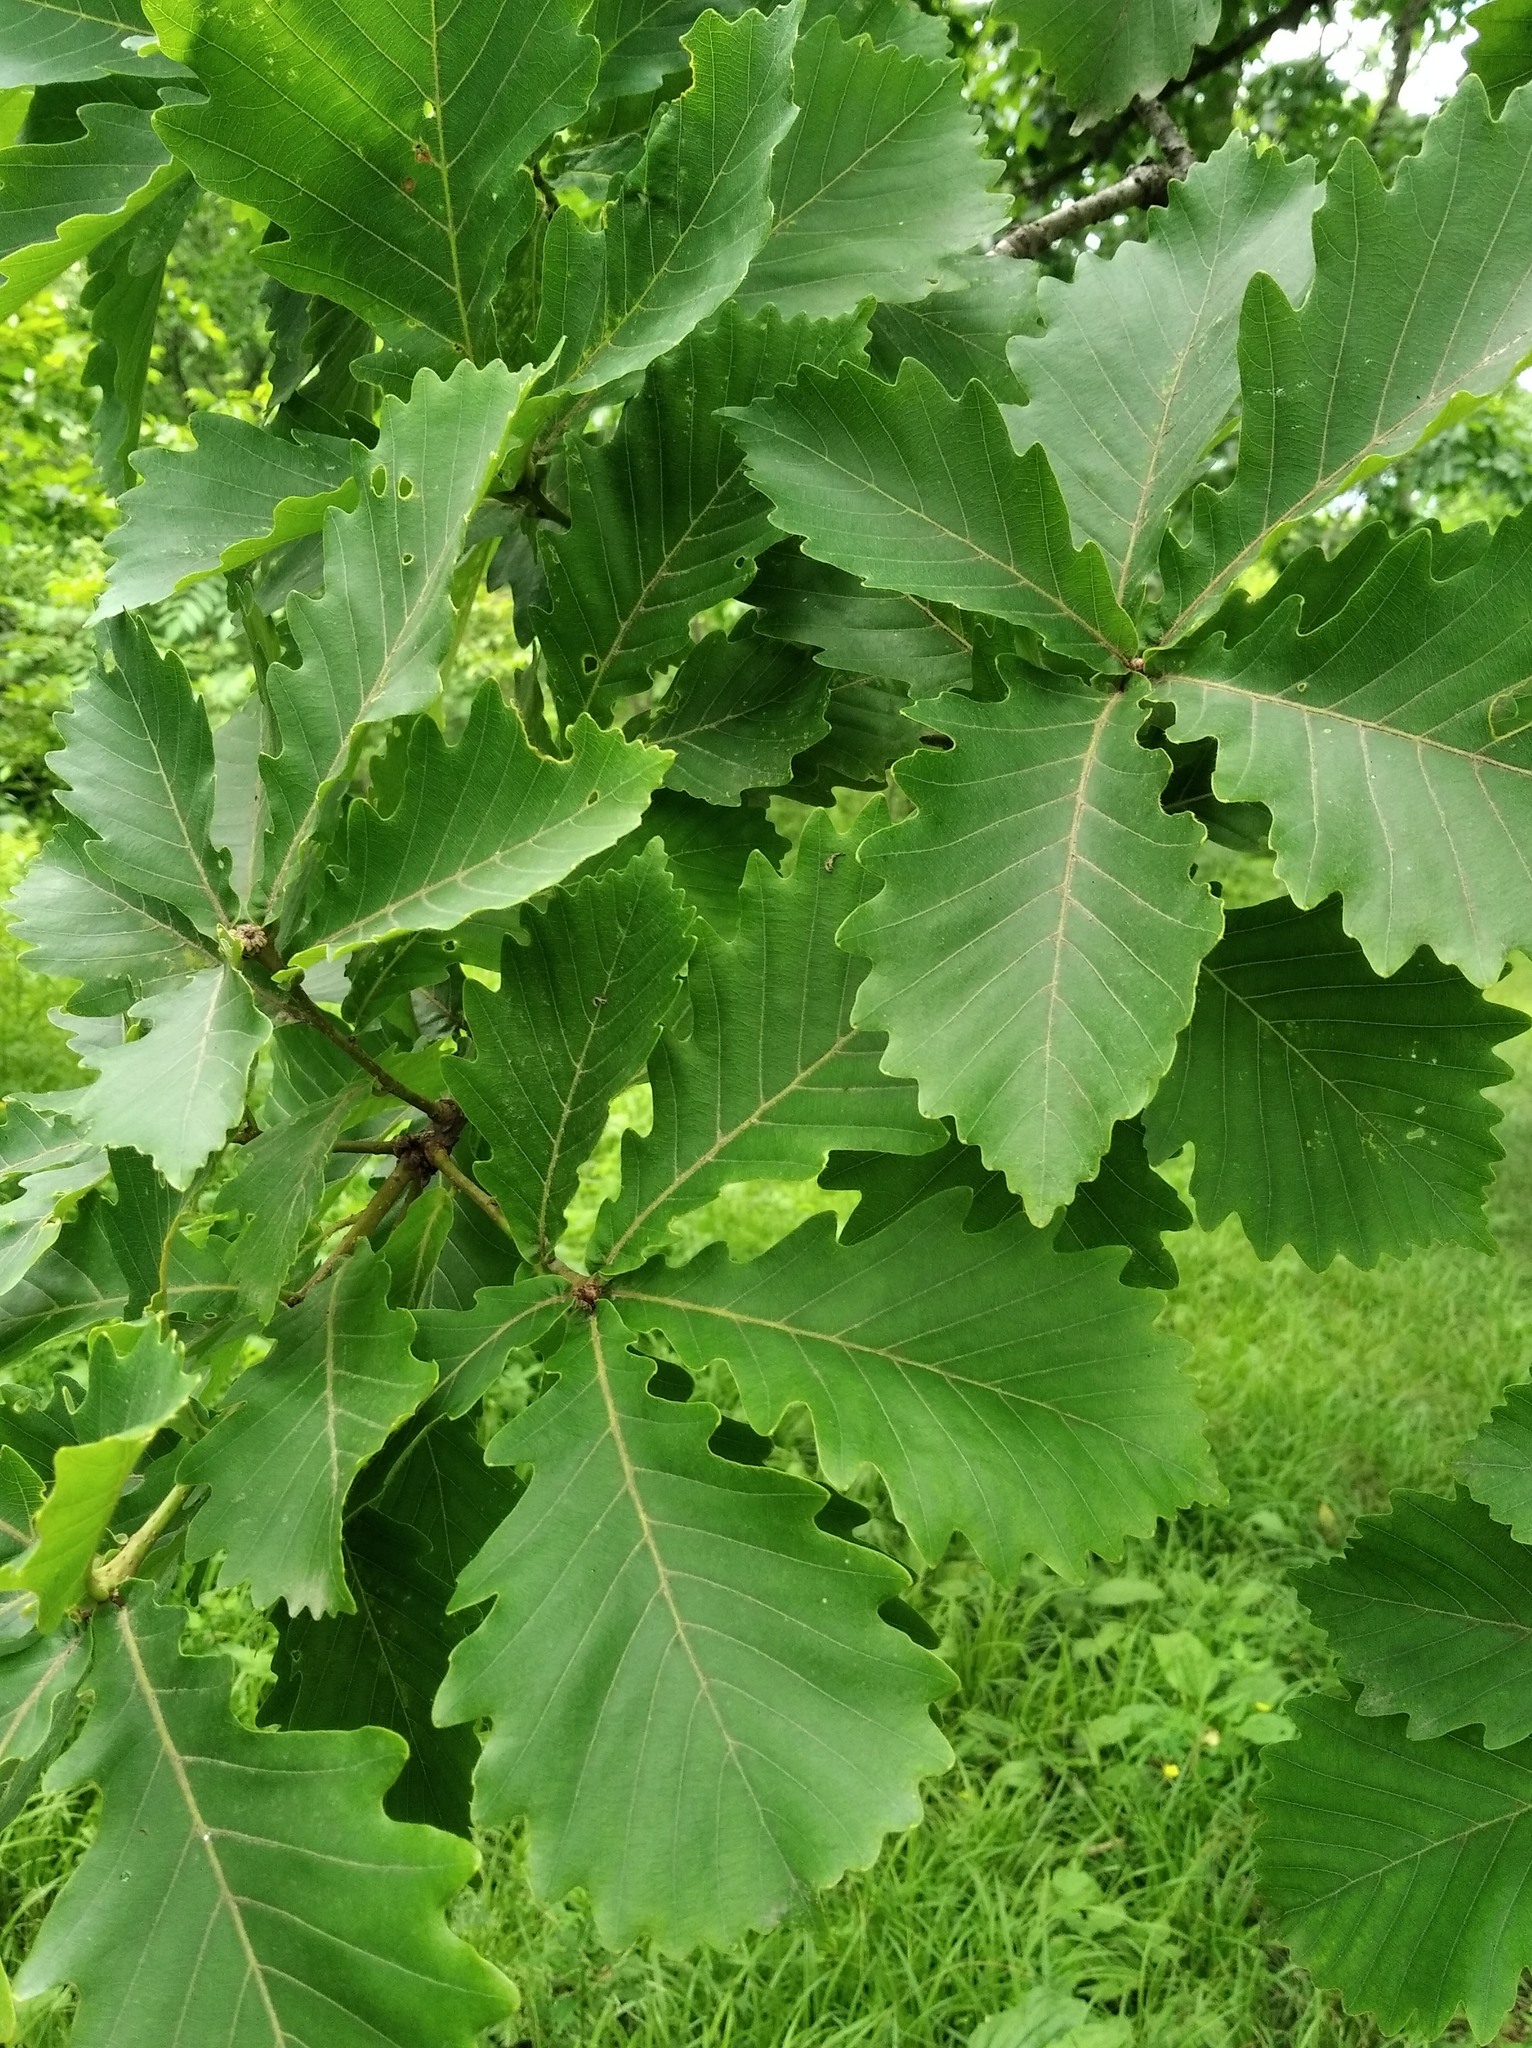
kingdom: Plantae
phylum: Tracheophyta
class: Magnoliopsida
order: Fagales
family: Fagaceae
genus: Quercus
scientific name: Quercus mongolica
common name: Mongolian oak
